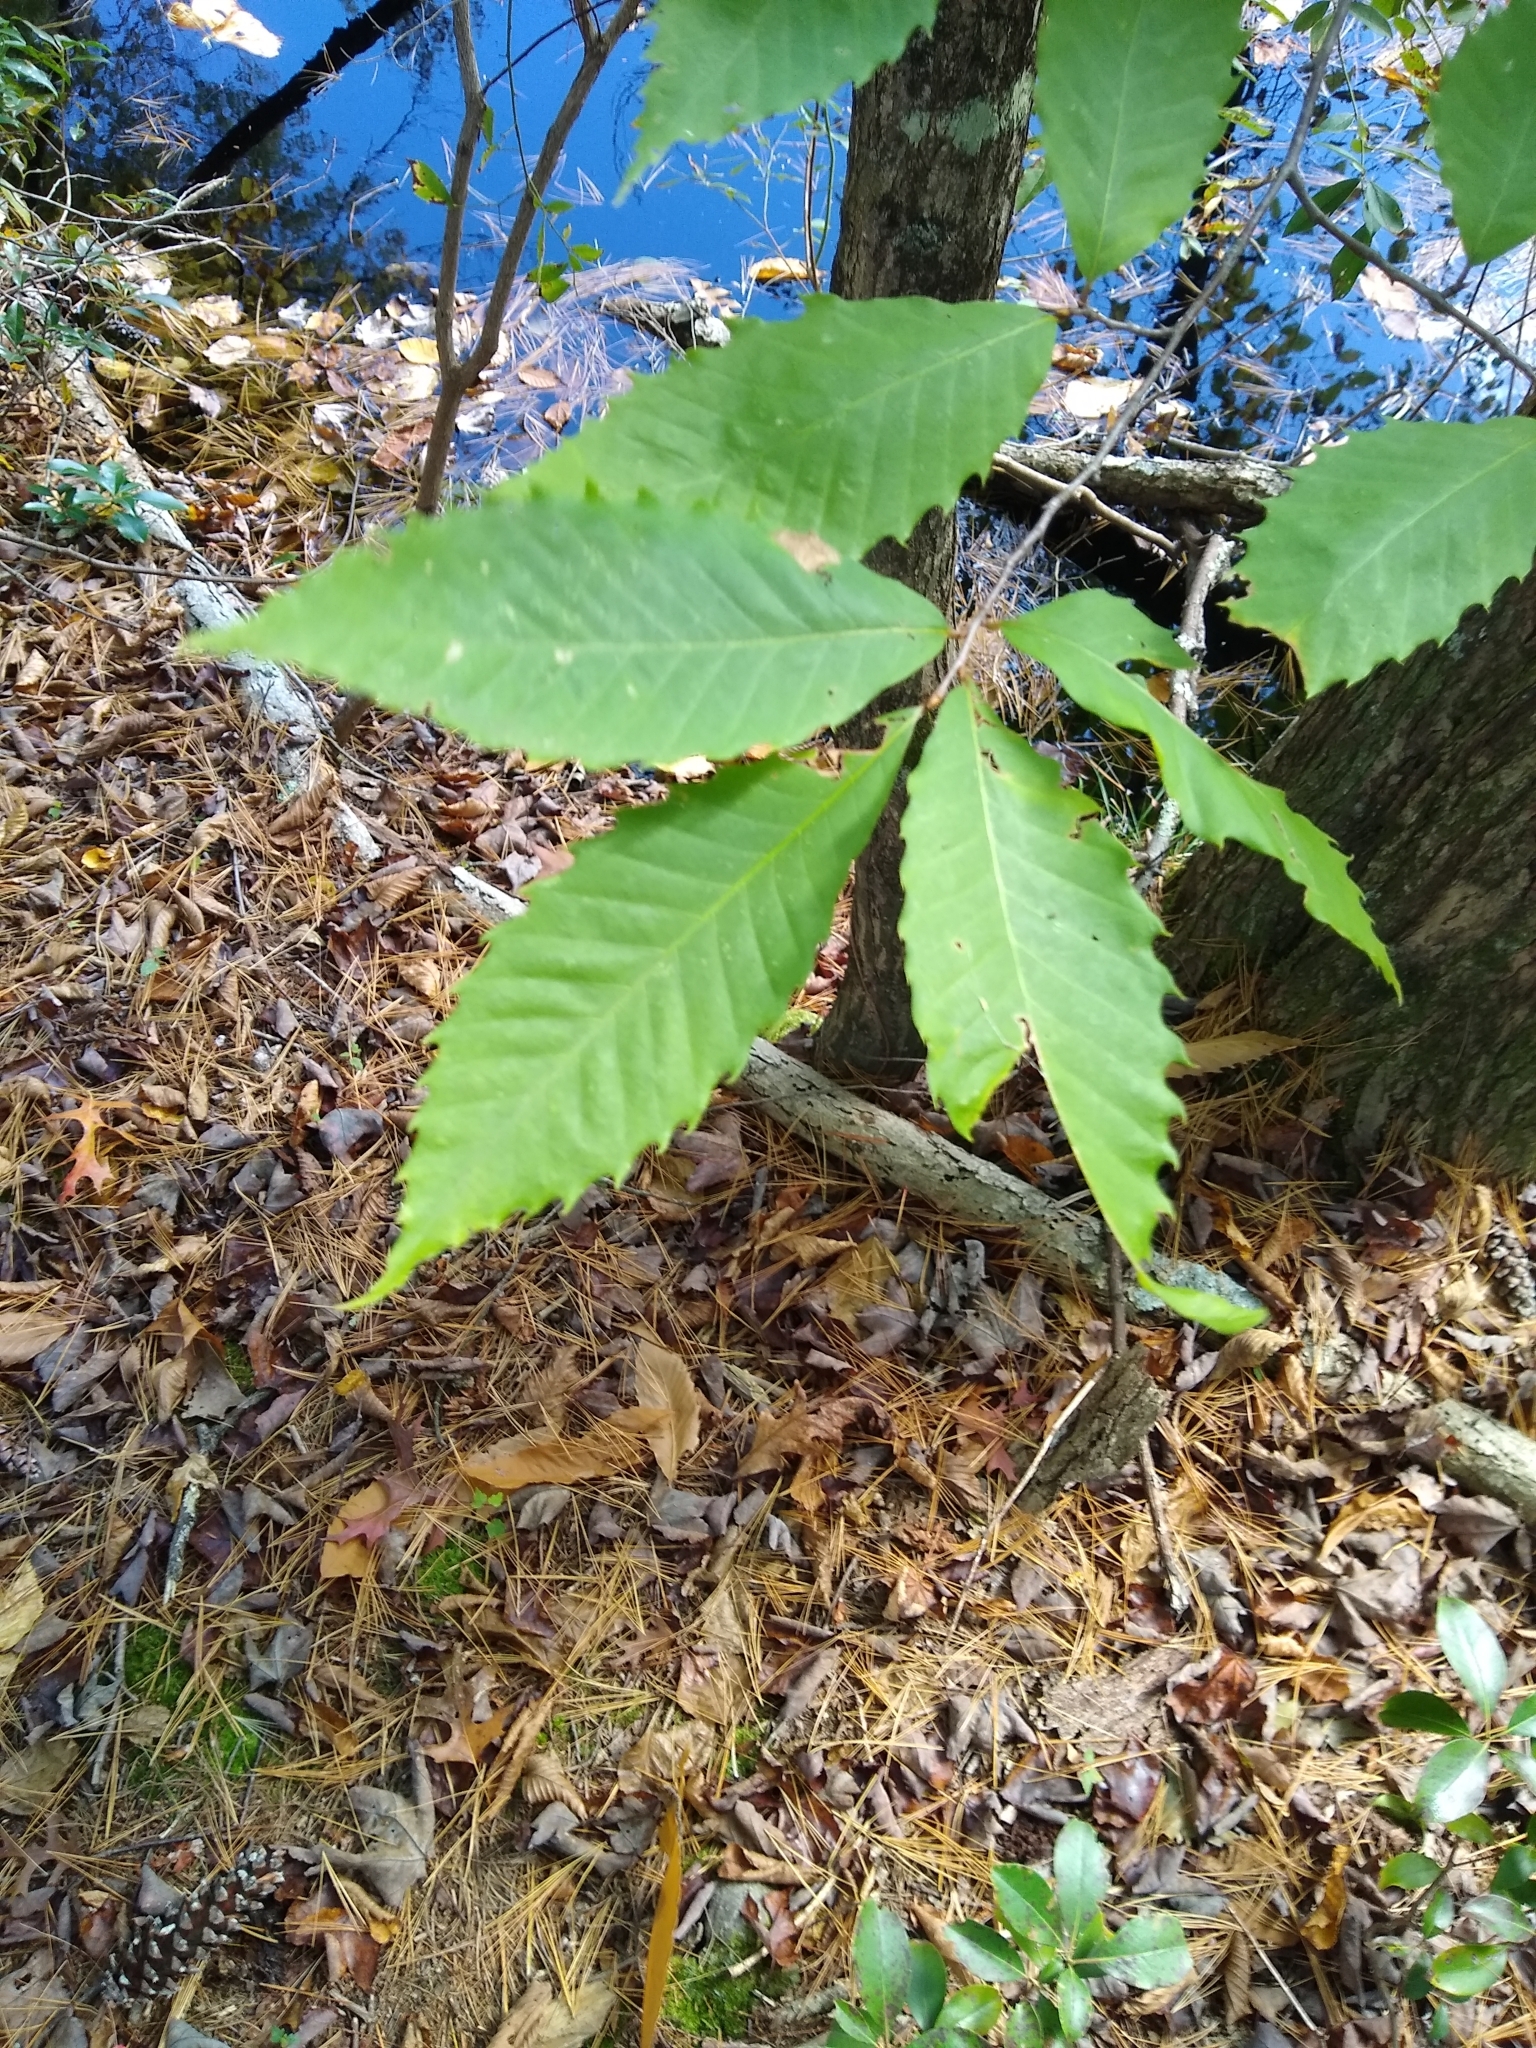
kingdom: Plantae
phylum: Tracheophyta
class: Magnoliopsida
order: Fagales
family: Fagaceae
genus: Castanea
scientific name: Castanea dentata
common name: American chestnut
